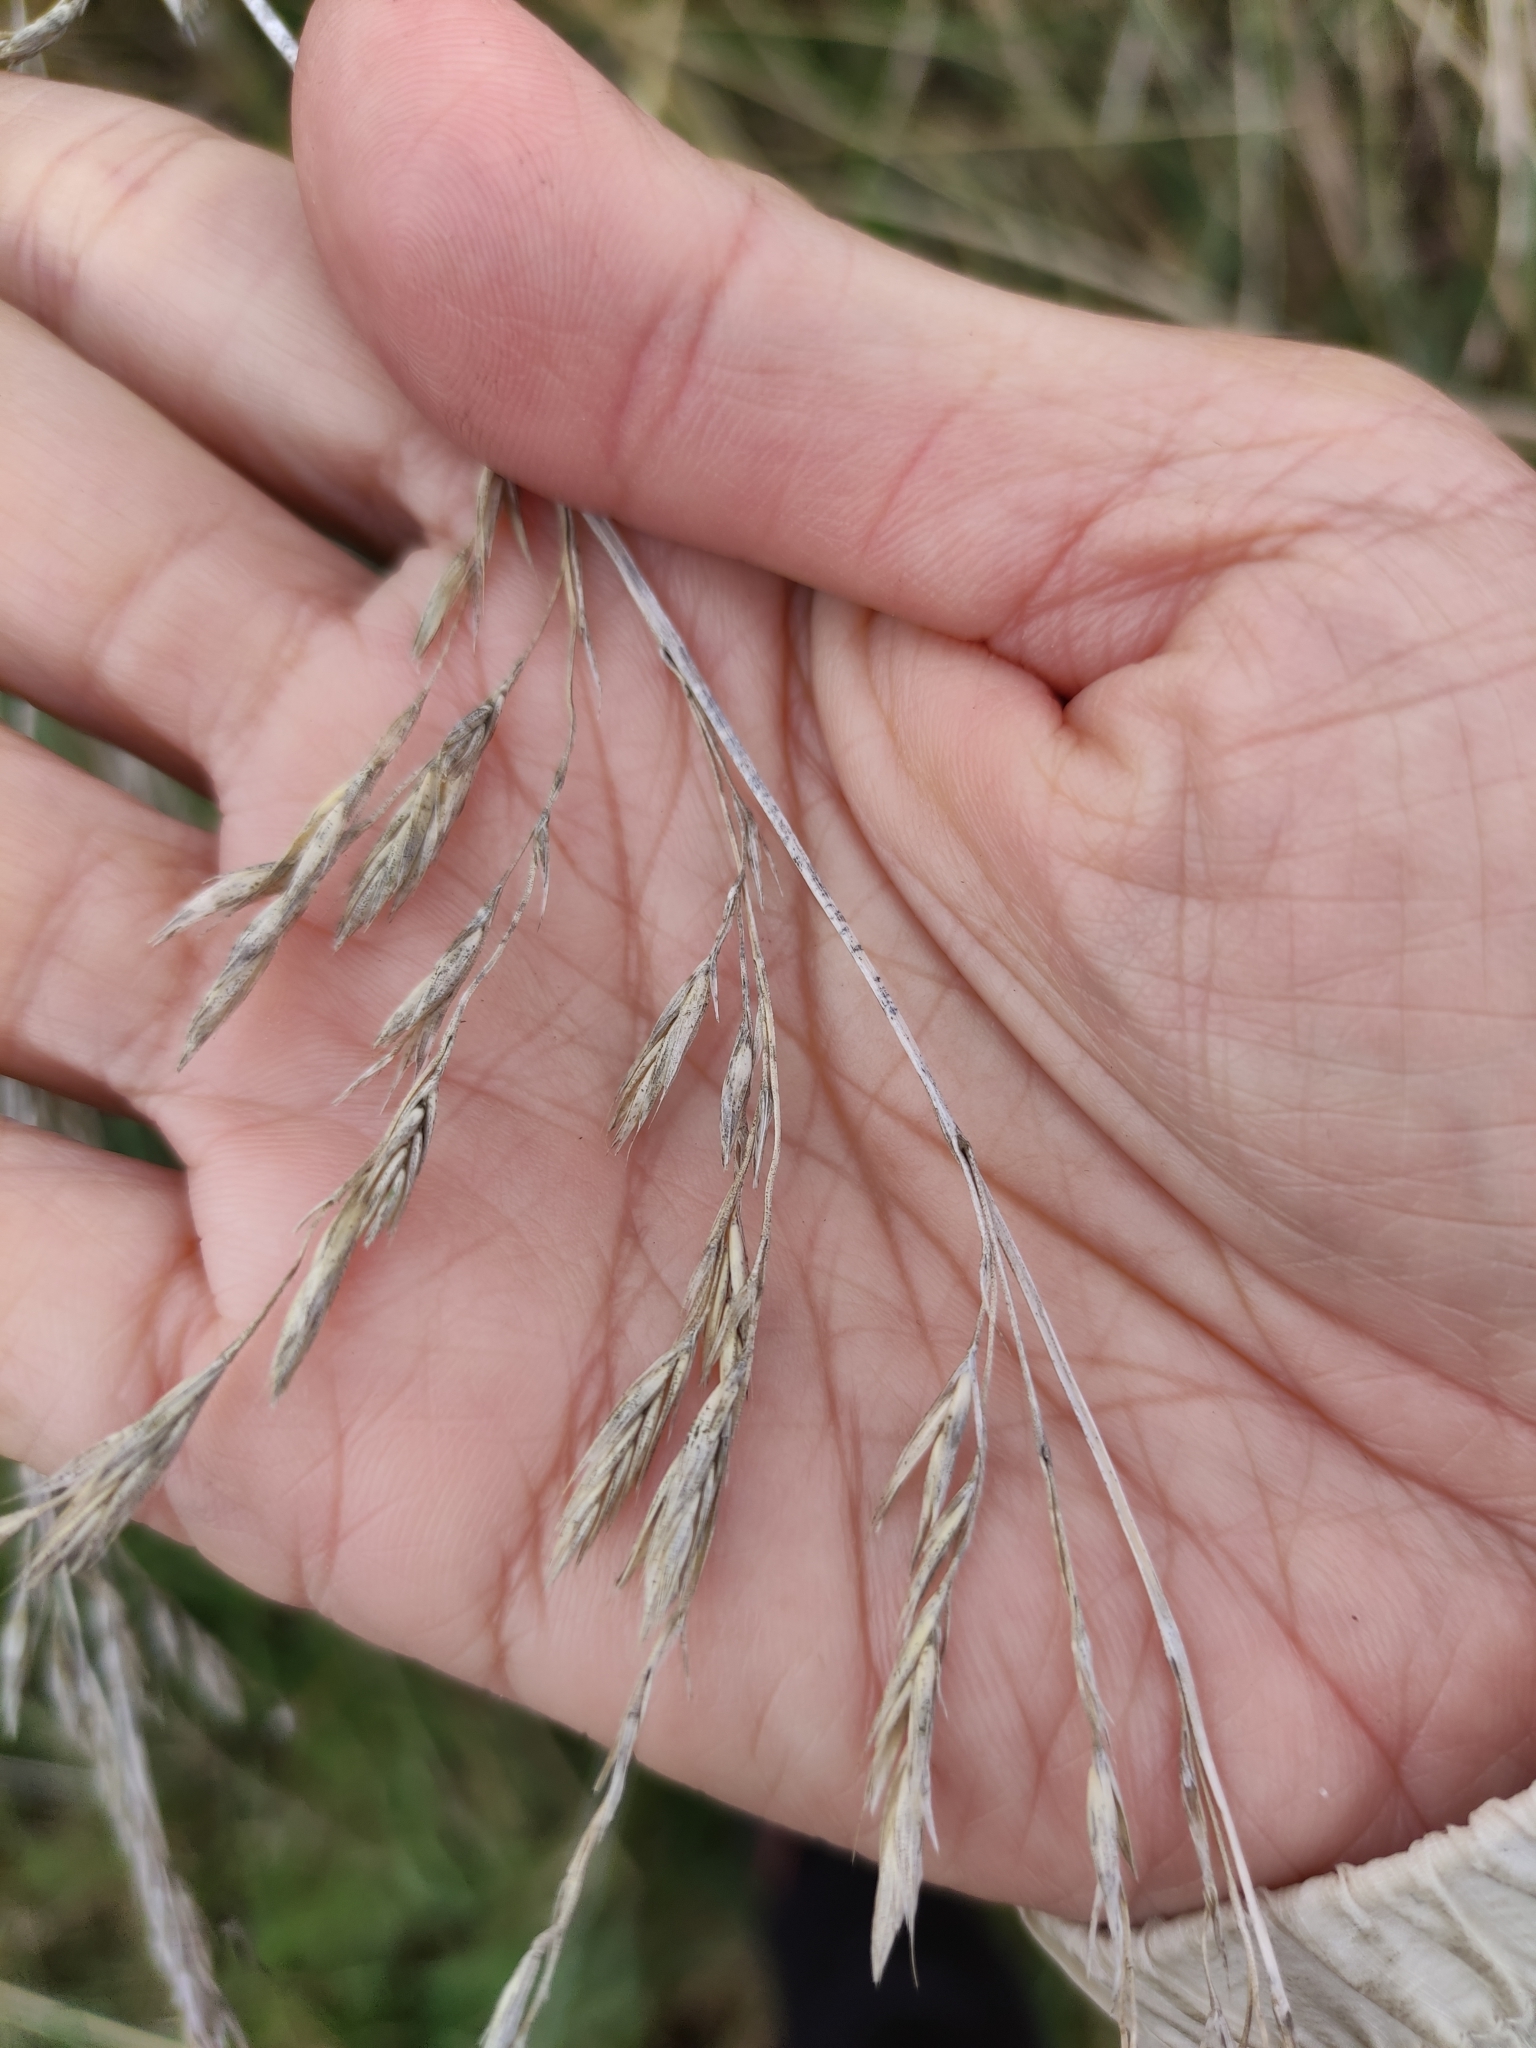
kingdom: Plantae
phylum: Tracheophyta
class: Liliopsida
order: Poales
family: Poaceae
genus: Lolium
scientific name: Lolium arundinaceum
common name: Reed fescue
